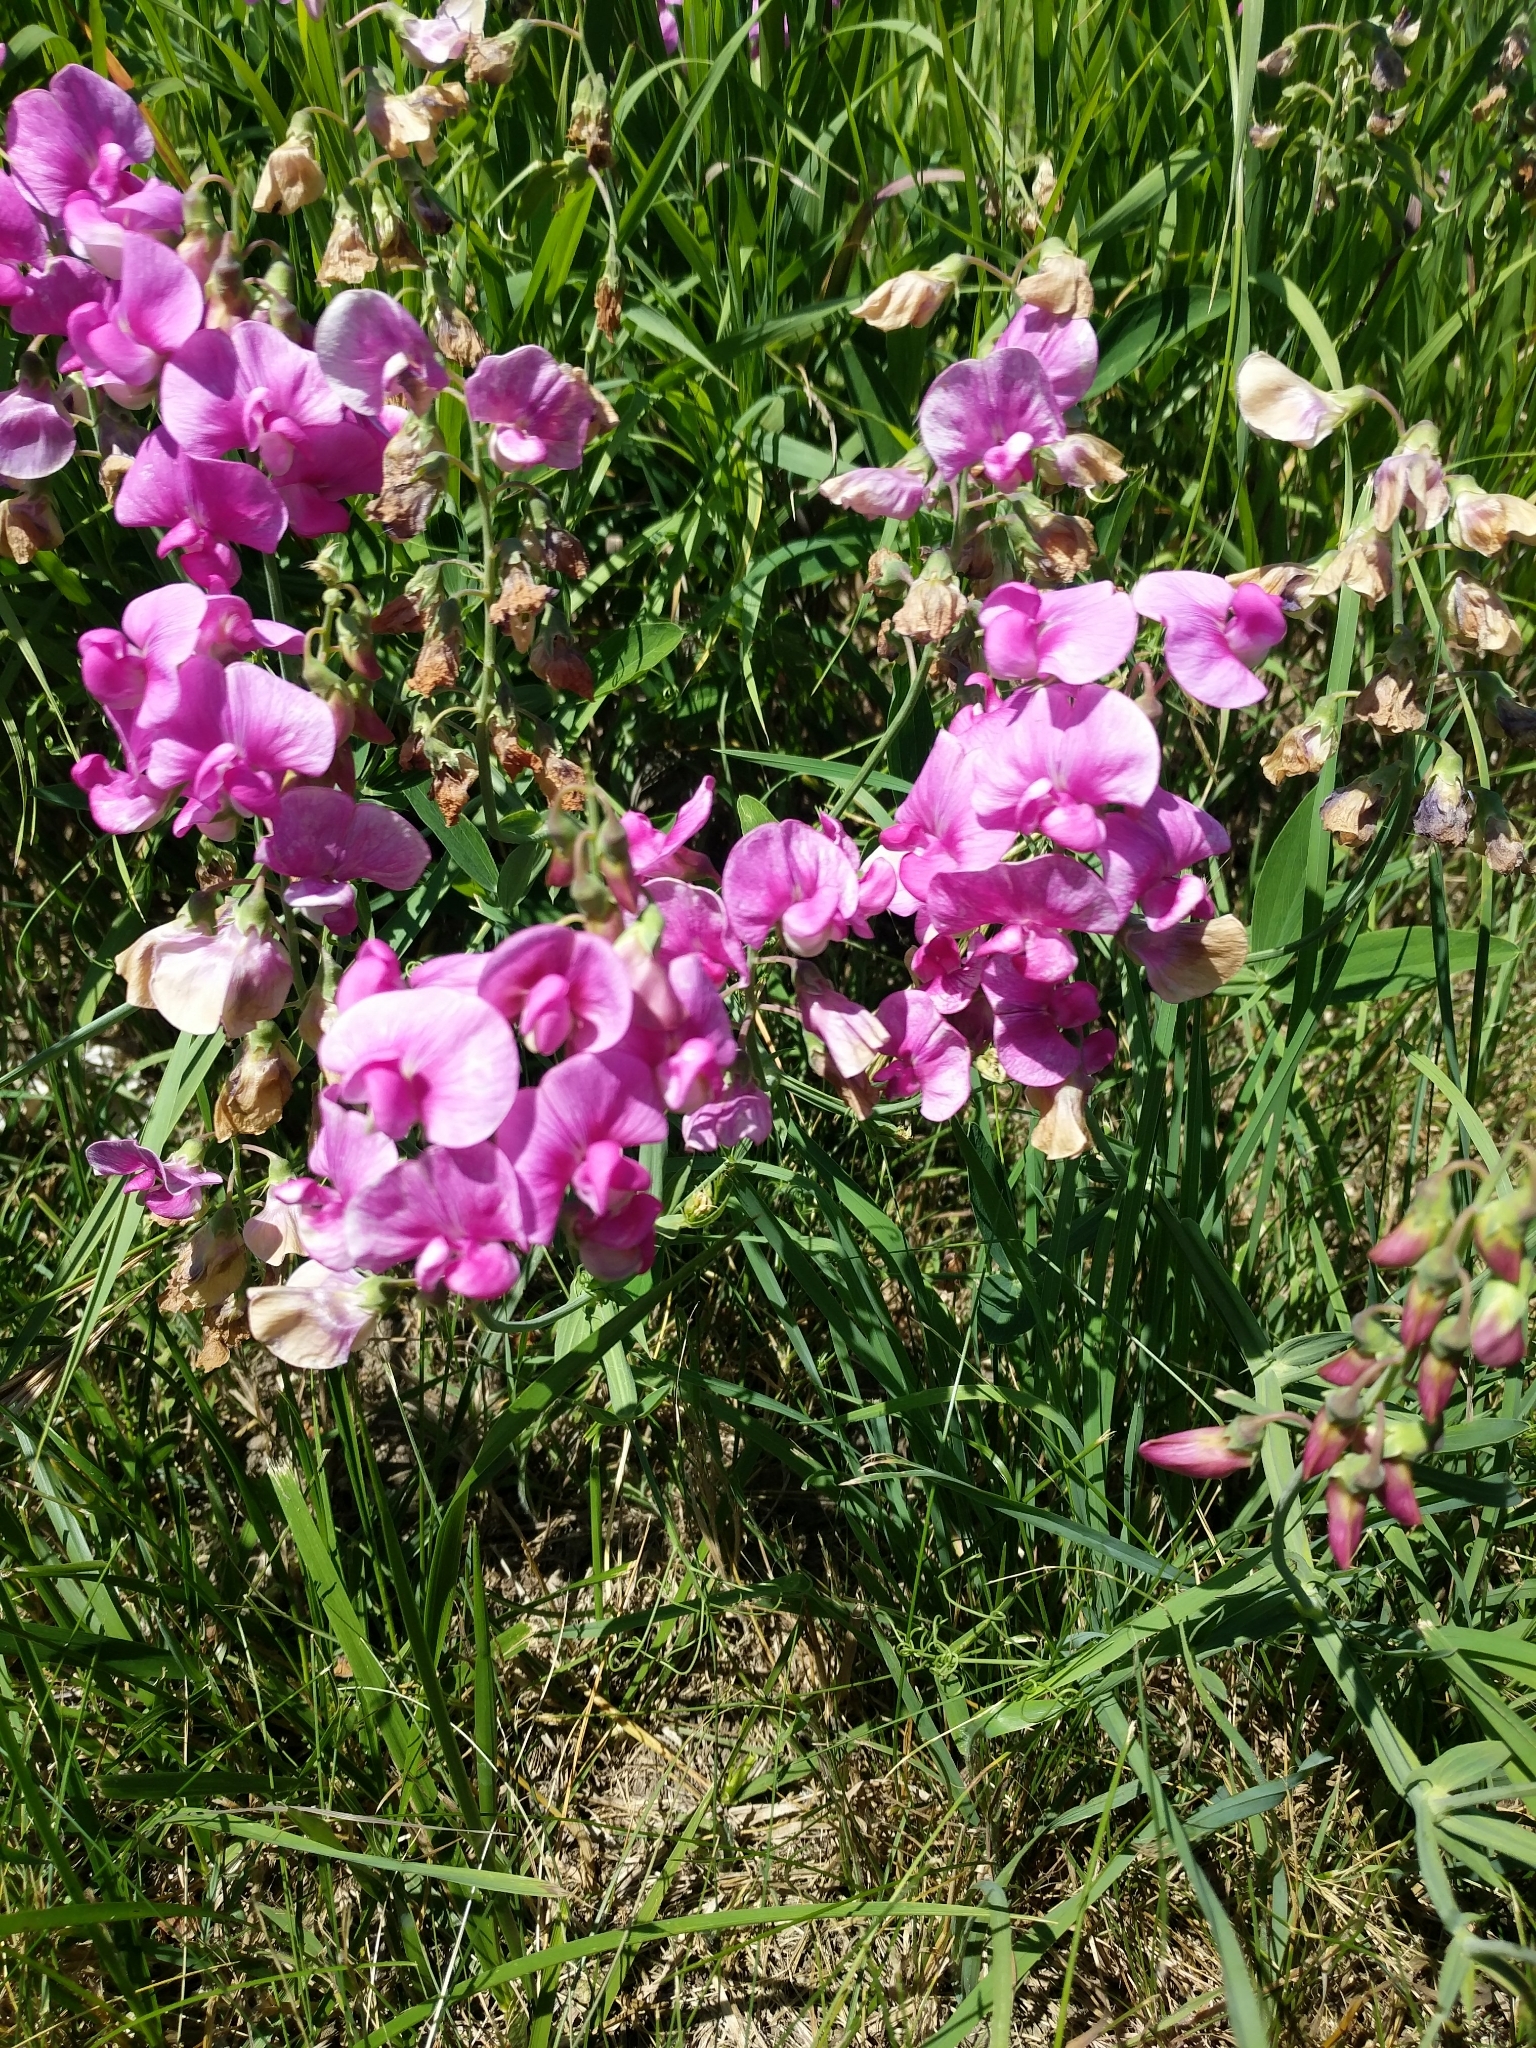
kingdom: Plantae
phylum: Tracheophyta
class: Magnoliopsida
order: Fabales
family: Fabaceae
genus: Lathyrus
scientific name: Lathyrus latifolius
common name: Perennial pea
